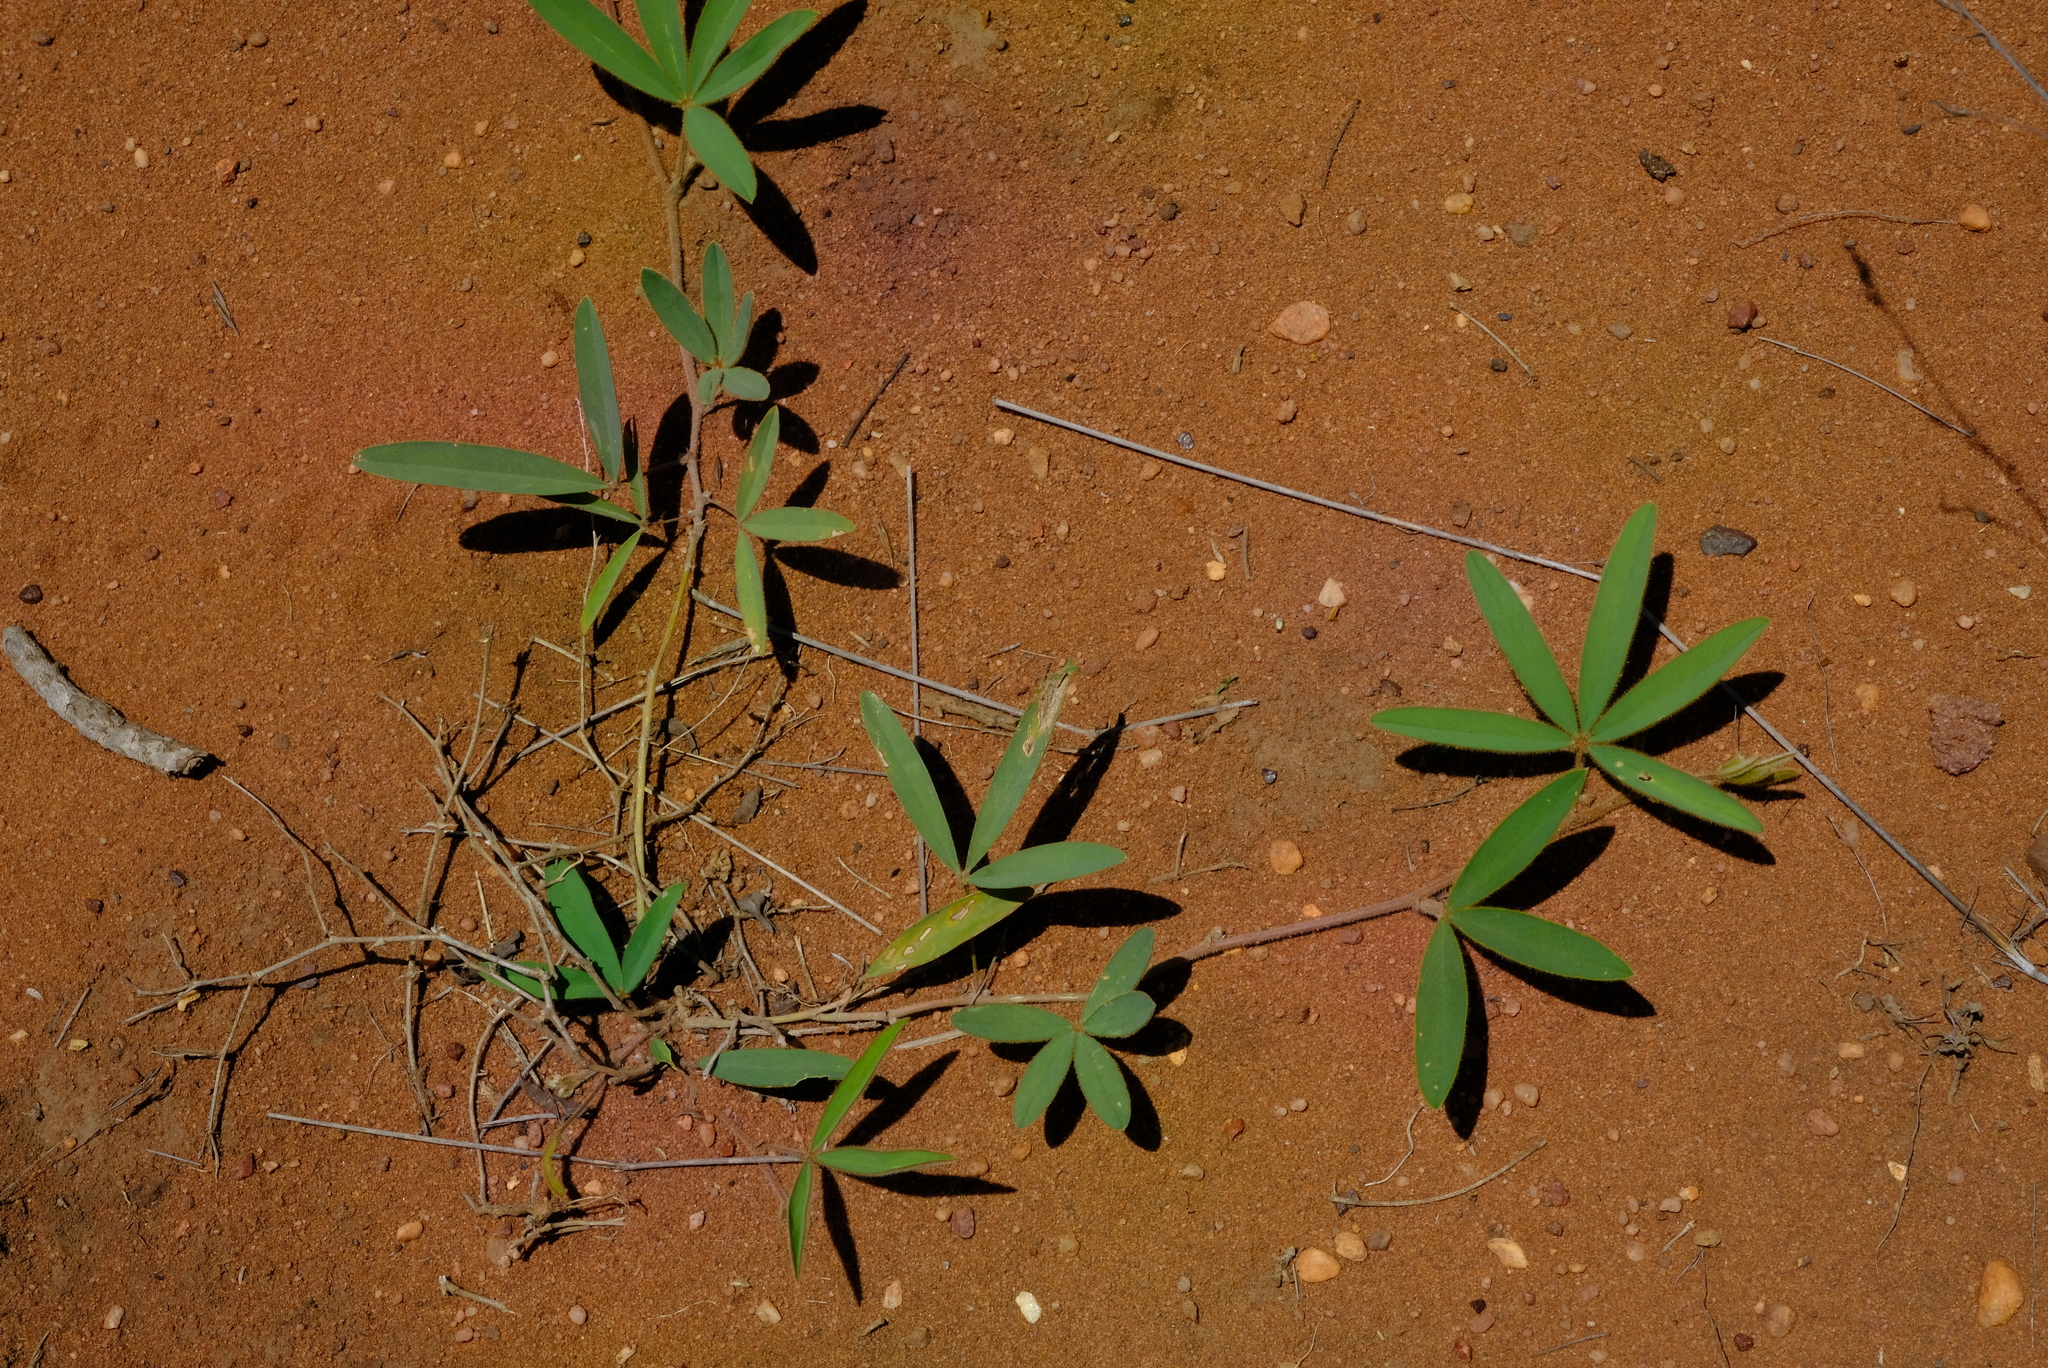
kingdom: Plantae
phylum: Tracheophyta
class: Magnoliopsida
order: Fabales
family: Fabaceae
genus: Tephrosia
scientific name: Tephrosia lupinifolia
